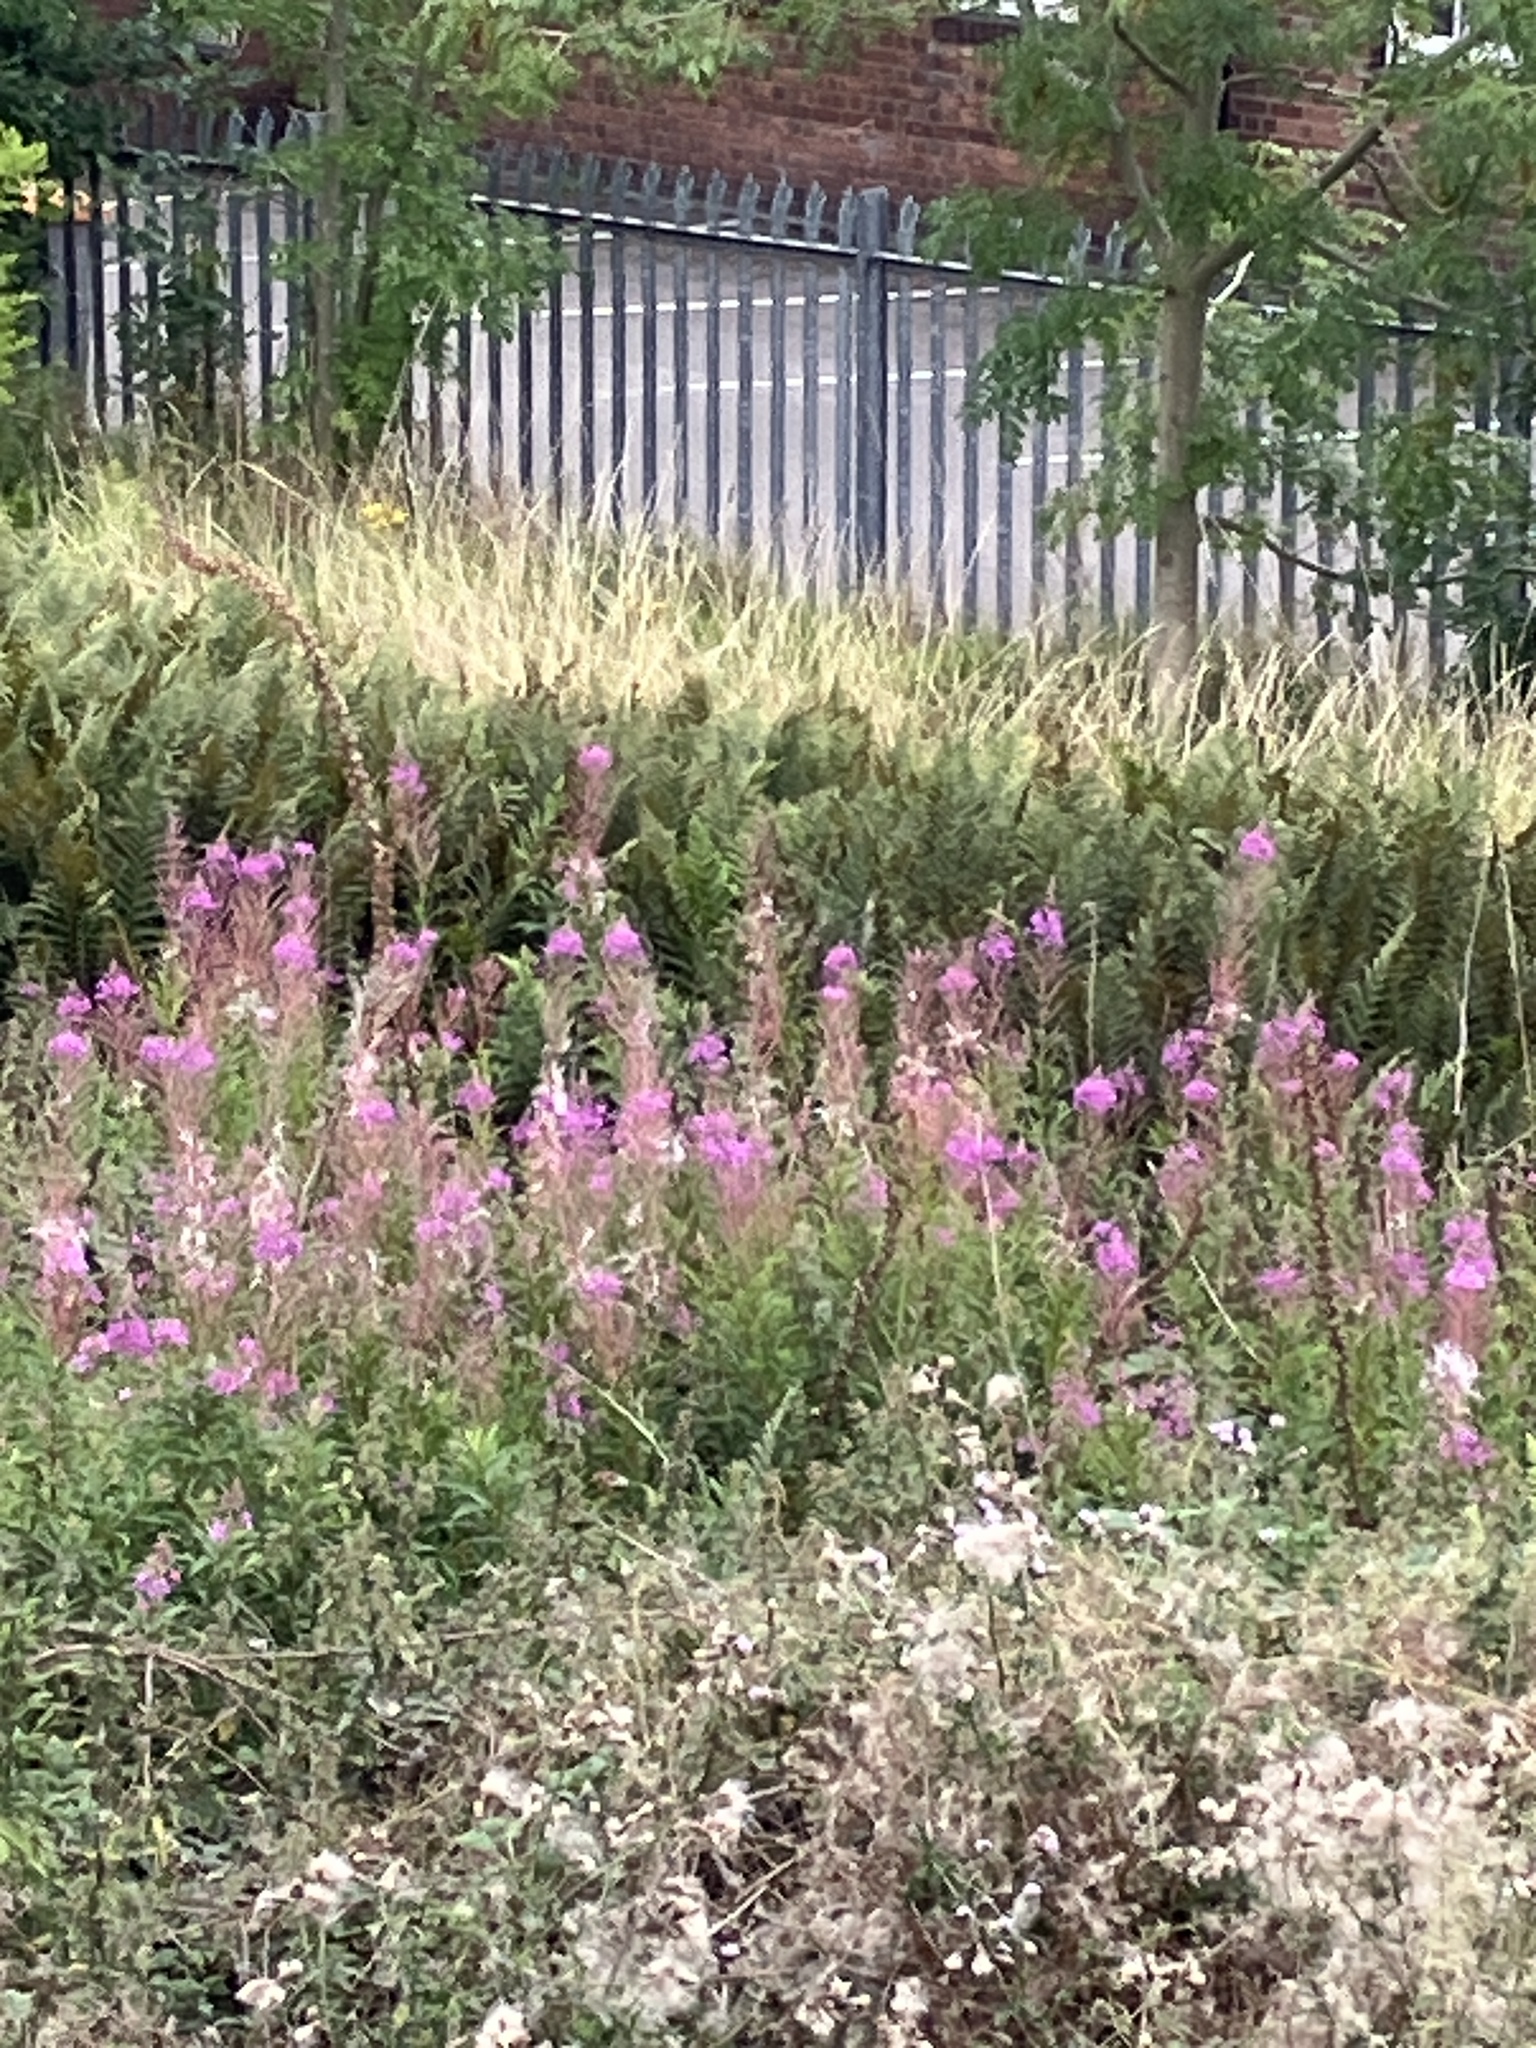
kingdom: Plantae
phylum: Tracheophyta
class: Magnoliopsida
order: Myrtales
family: Onagraceae
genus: Chamaenerion
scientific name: Chamaenerion angustifolium
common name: Fireweed
